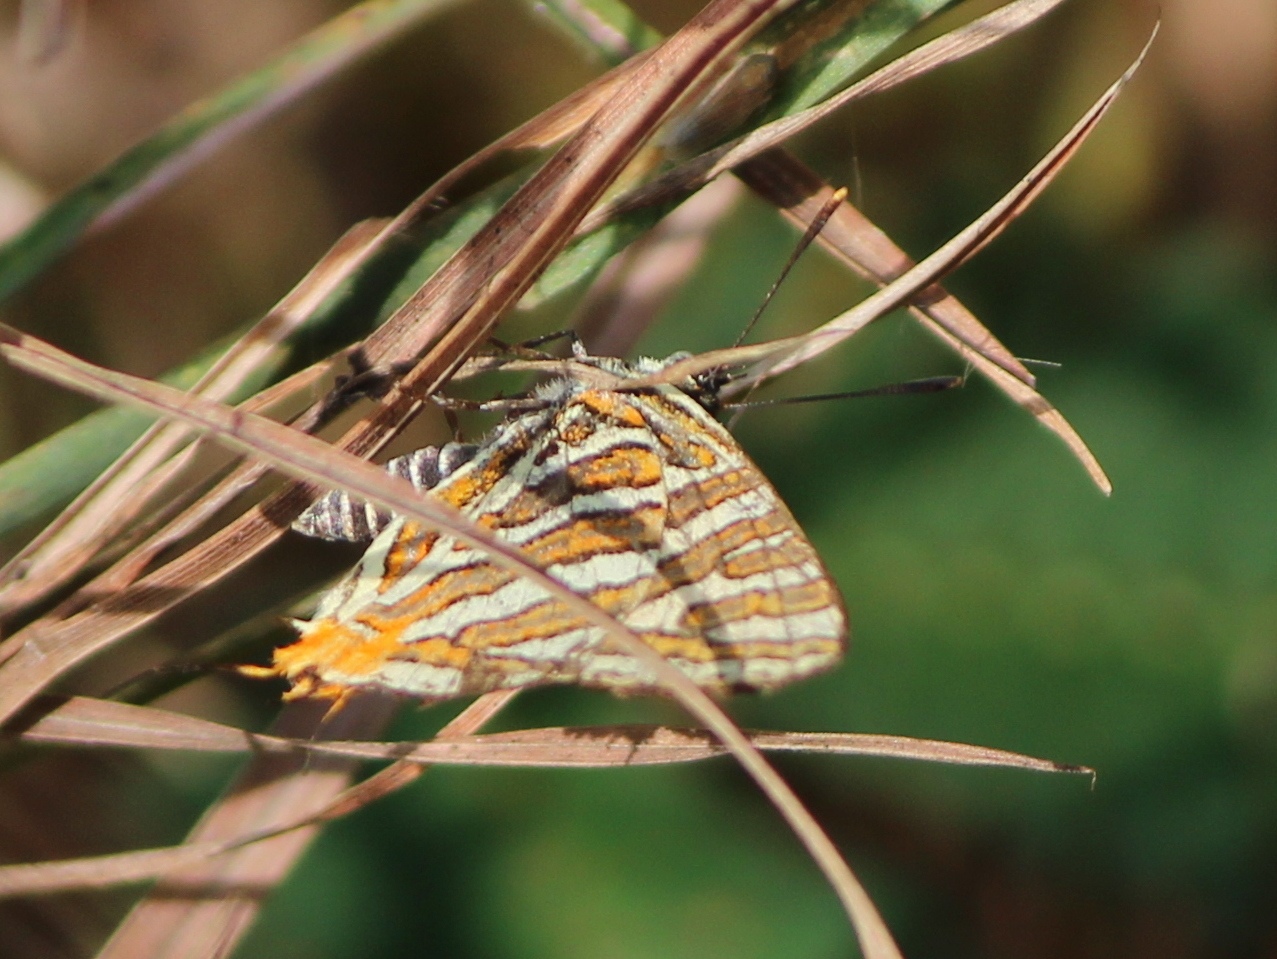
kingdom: Animalia
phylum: Arthropoda
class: Insecta
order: Lepidoptera
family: Lycaenidae
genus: Cigaritis
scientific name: Cigaritis vulcanus
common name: Common silverline
